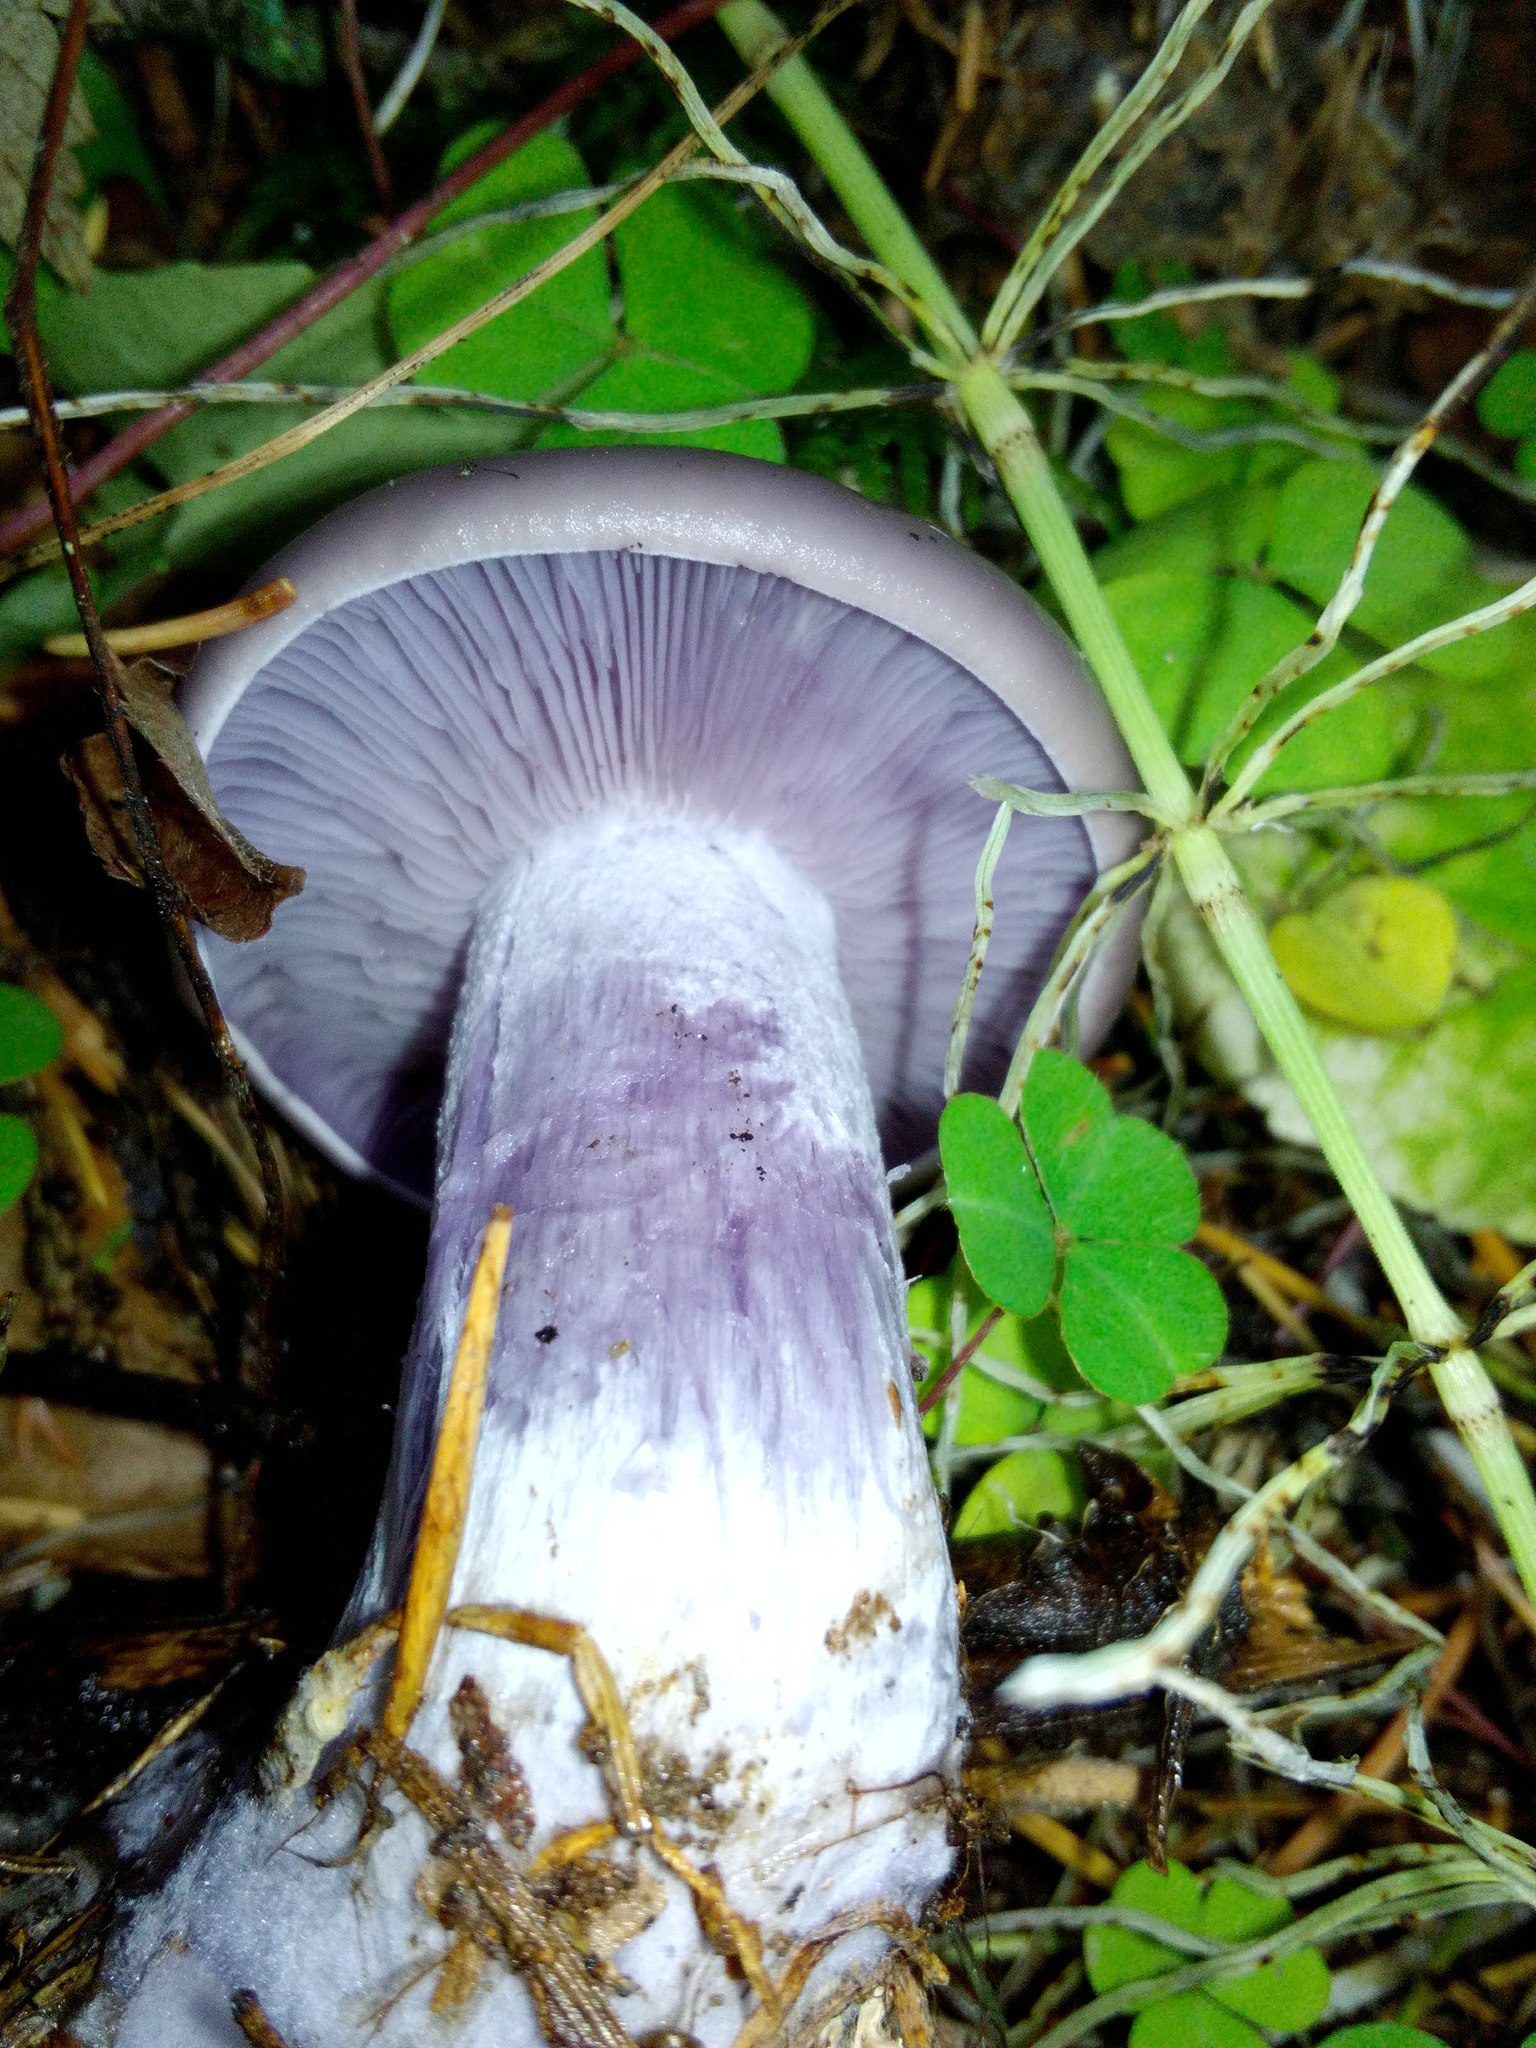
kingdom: Fungi
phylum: Basidiomycota
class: Agaricomycetes
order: Agaricales
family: Tricholomataceae
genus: Collybia
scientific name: Collybia
